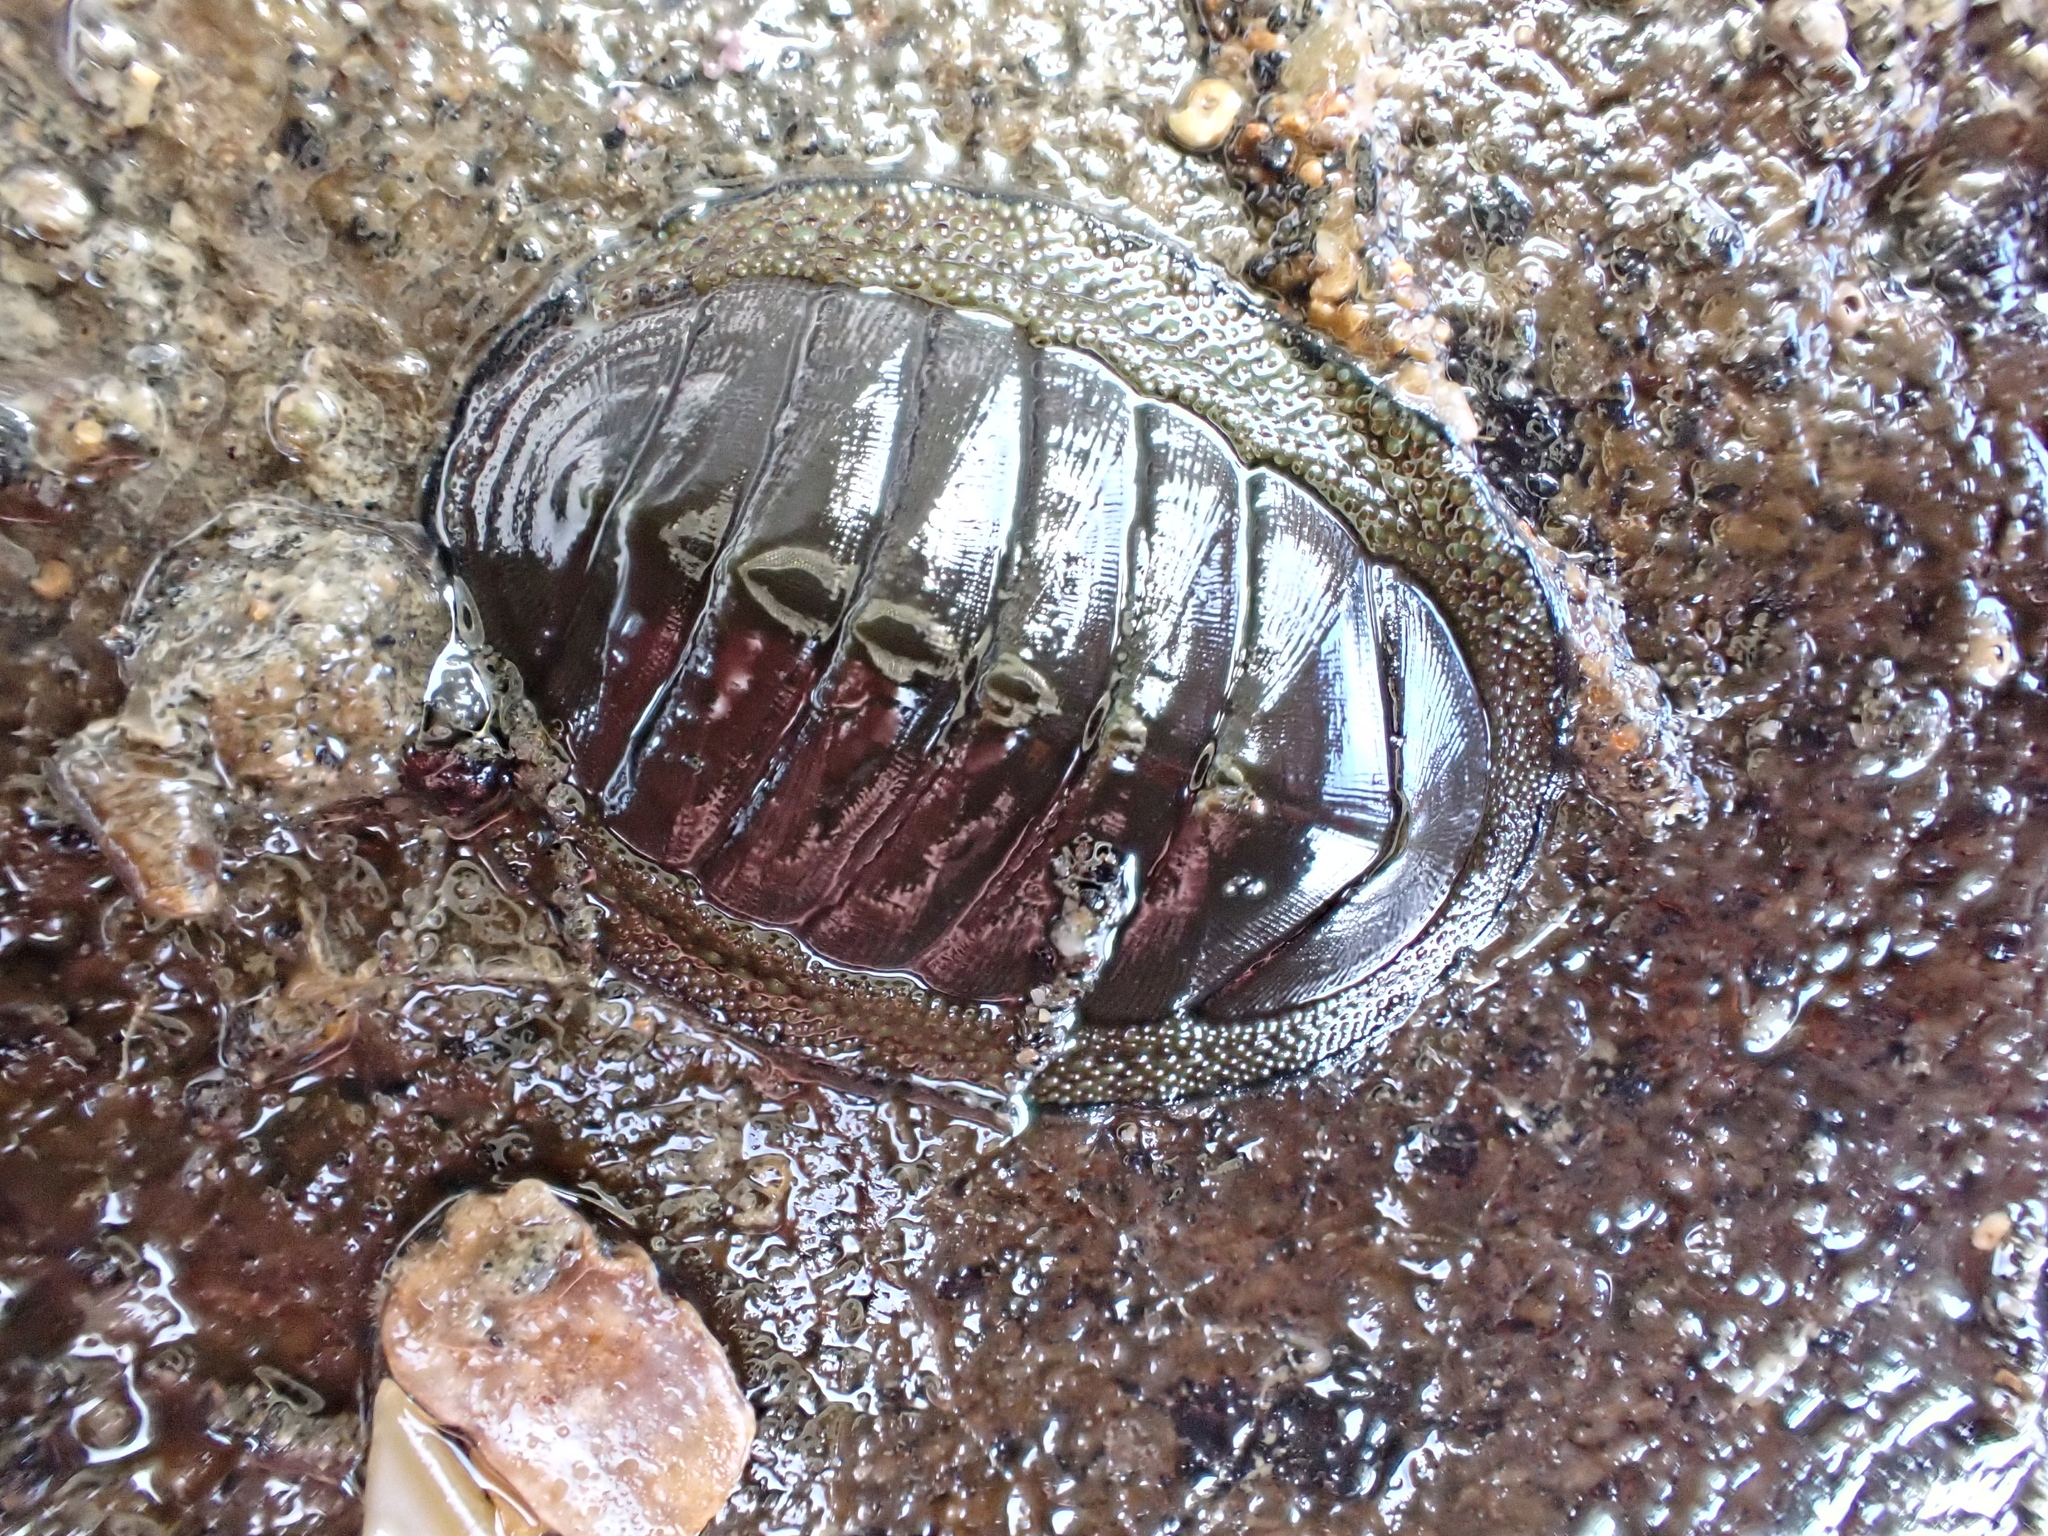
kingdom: Animalia
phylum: Mollusca
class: Polyplacophora
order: Chitonida
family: Chitonidae
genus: Chiton
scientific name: Chiton glaucus
